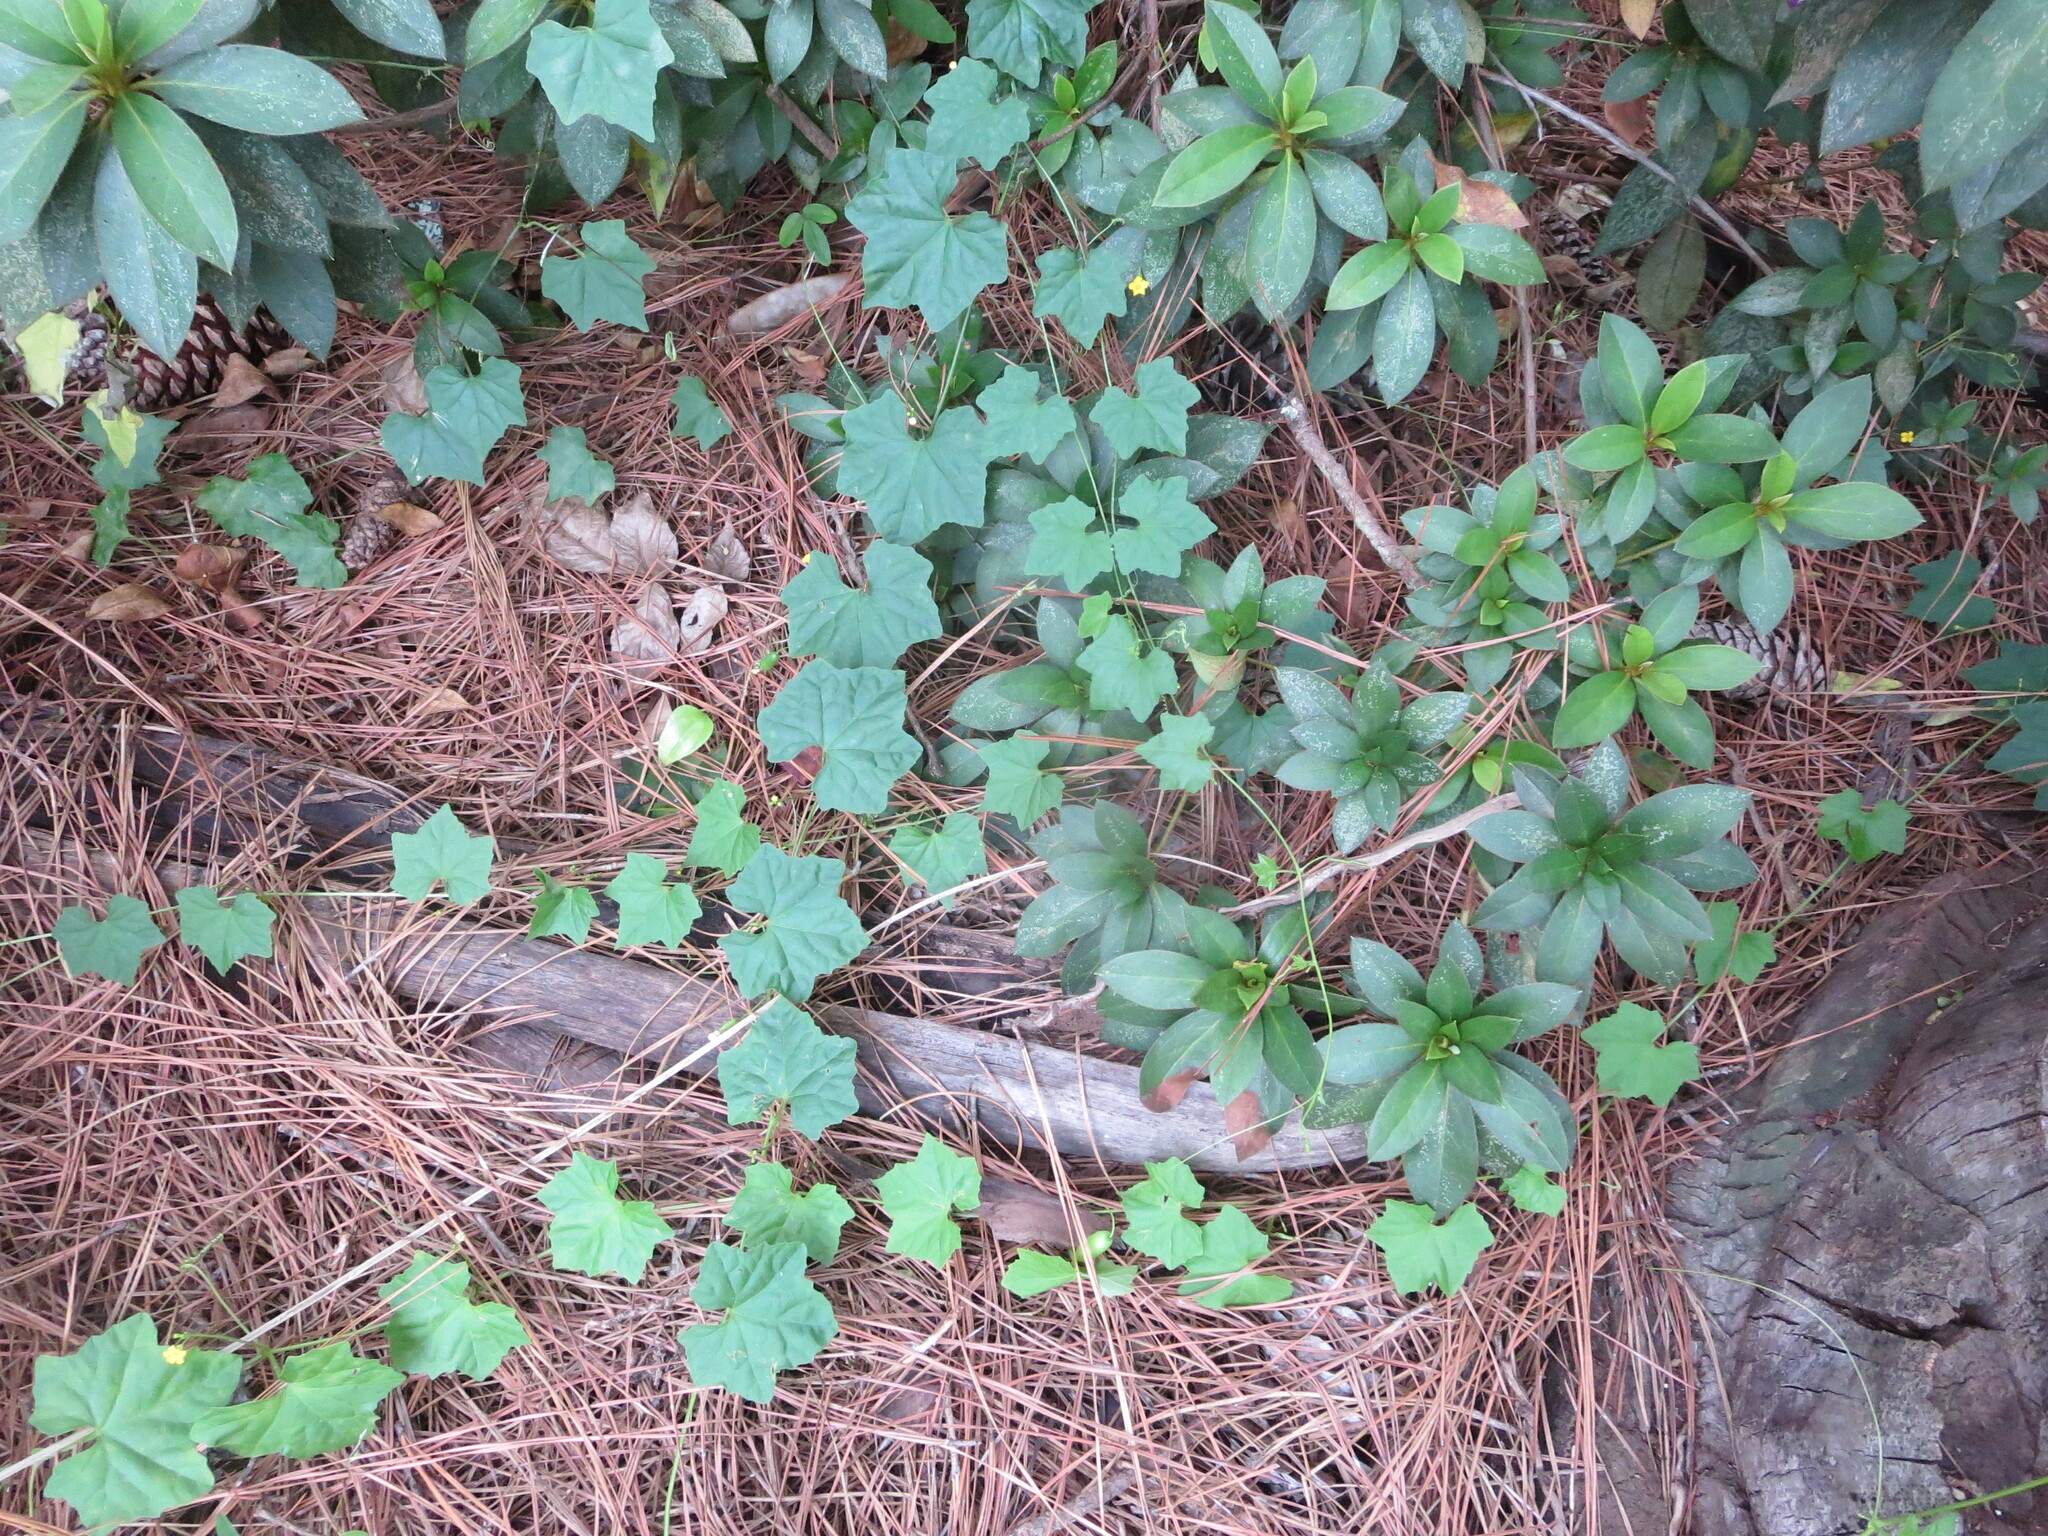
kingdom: Plantae
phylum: Tracheophyta
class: Magnoliopsida
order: Cucurbitales
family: Cucurbitaceae
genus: Melothria
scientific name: Melothria pendula
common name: Creeping-cucumber
